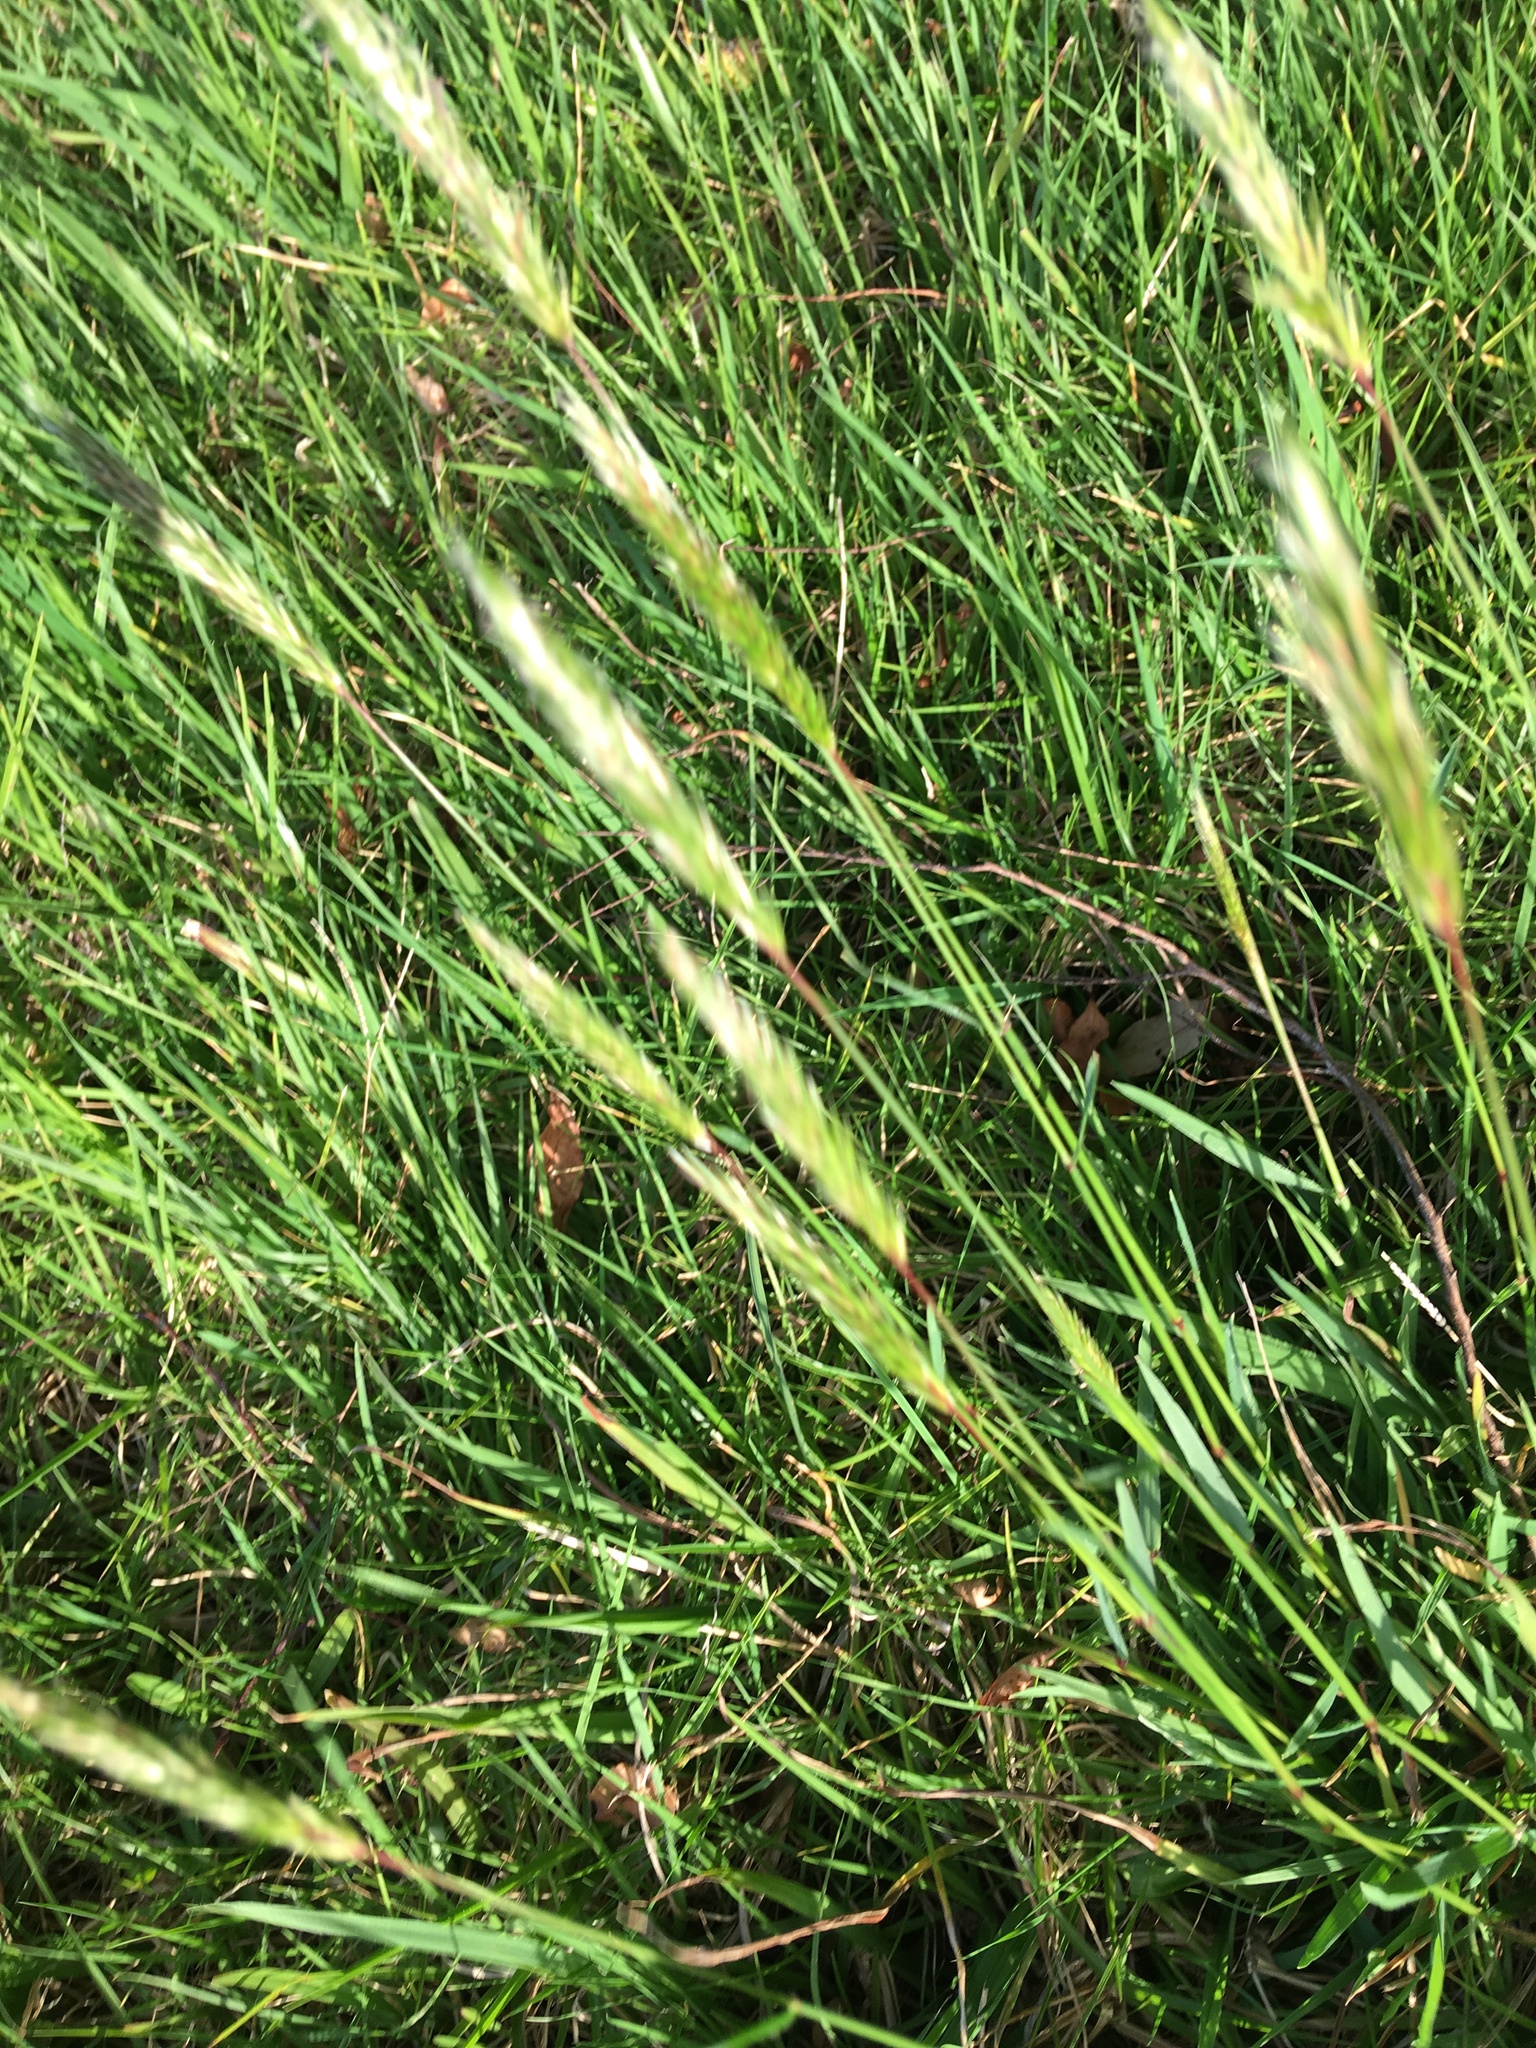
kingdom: Plantae
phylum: Tracheophyta
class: Liliopsida
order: Poales
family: Poaceae
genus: Anthoxanthum
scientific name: Anthoxanthum odoratum
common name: Sweet vernalgrass
